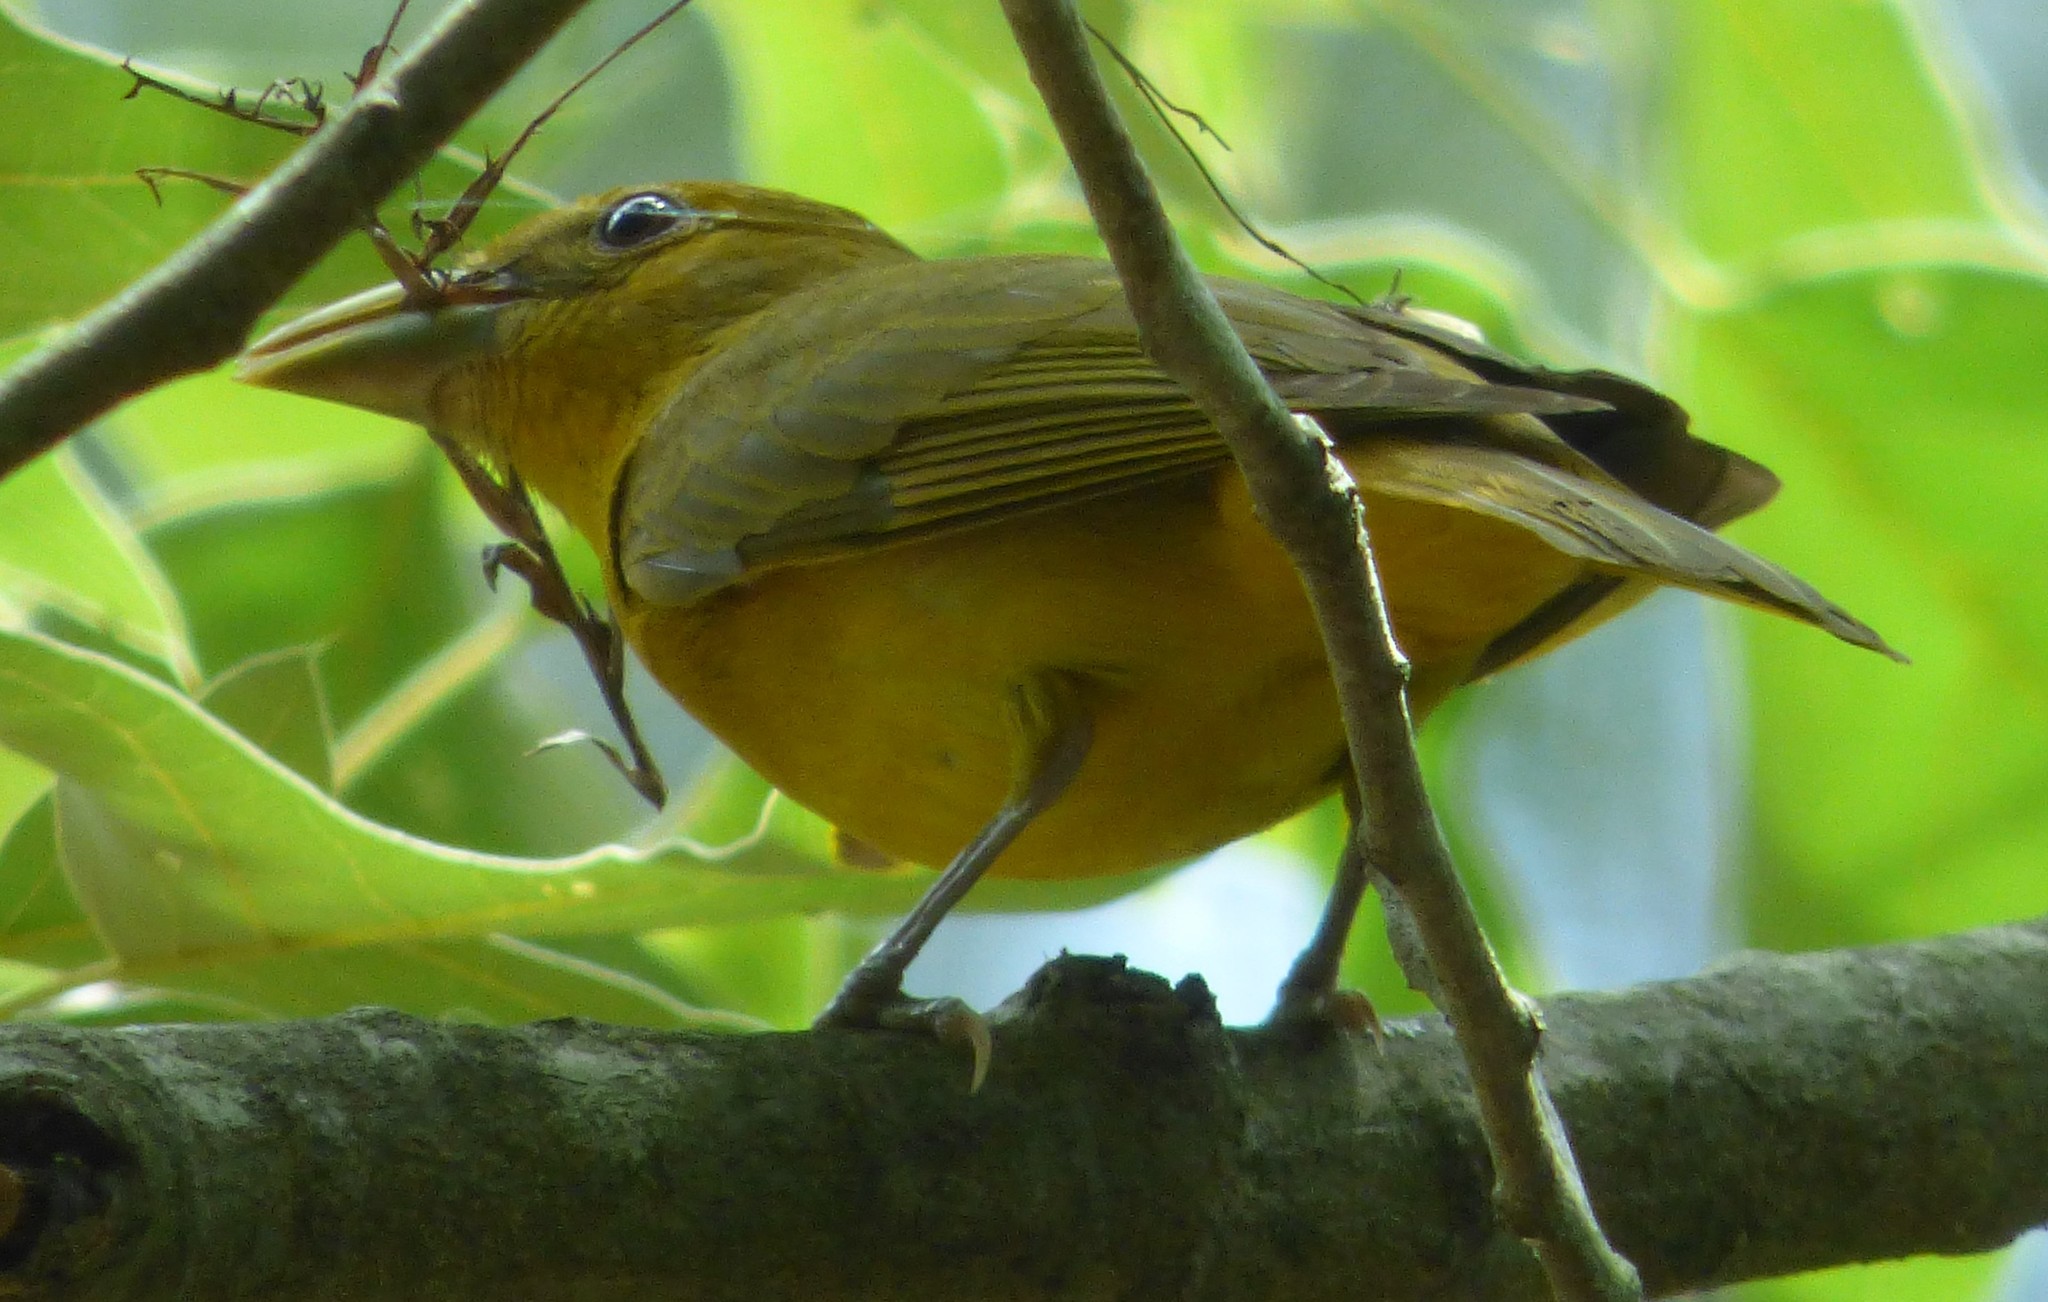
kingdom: Animalia
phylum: Chordata
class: Aves
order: Passeriformes
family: Cardinalidae
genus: Piranga
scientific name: Piranga rubra
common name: Summer tanager
